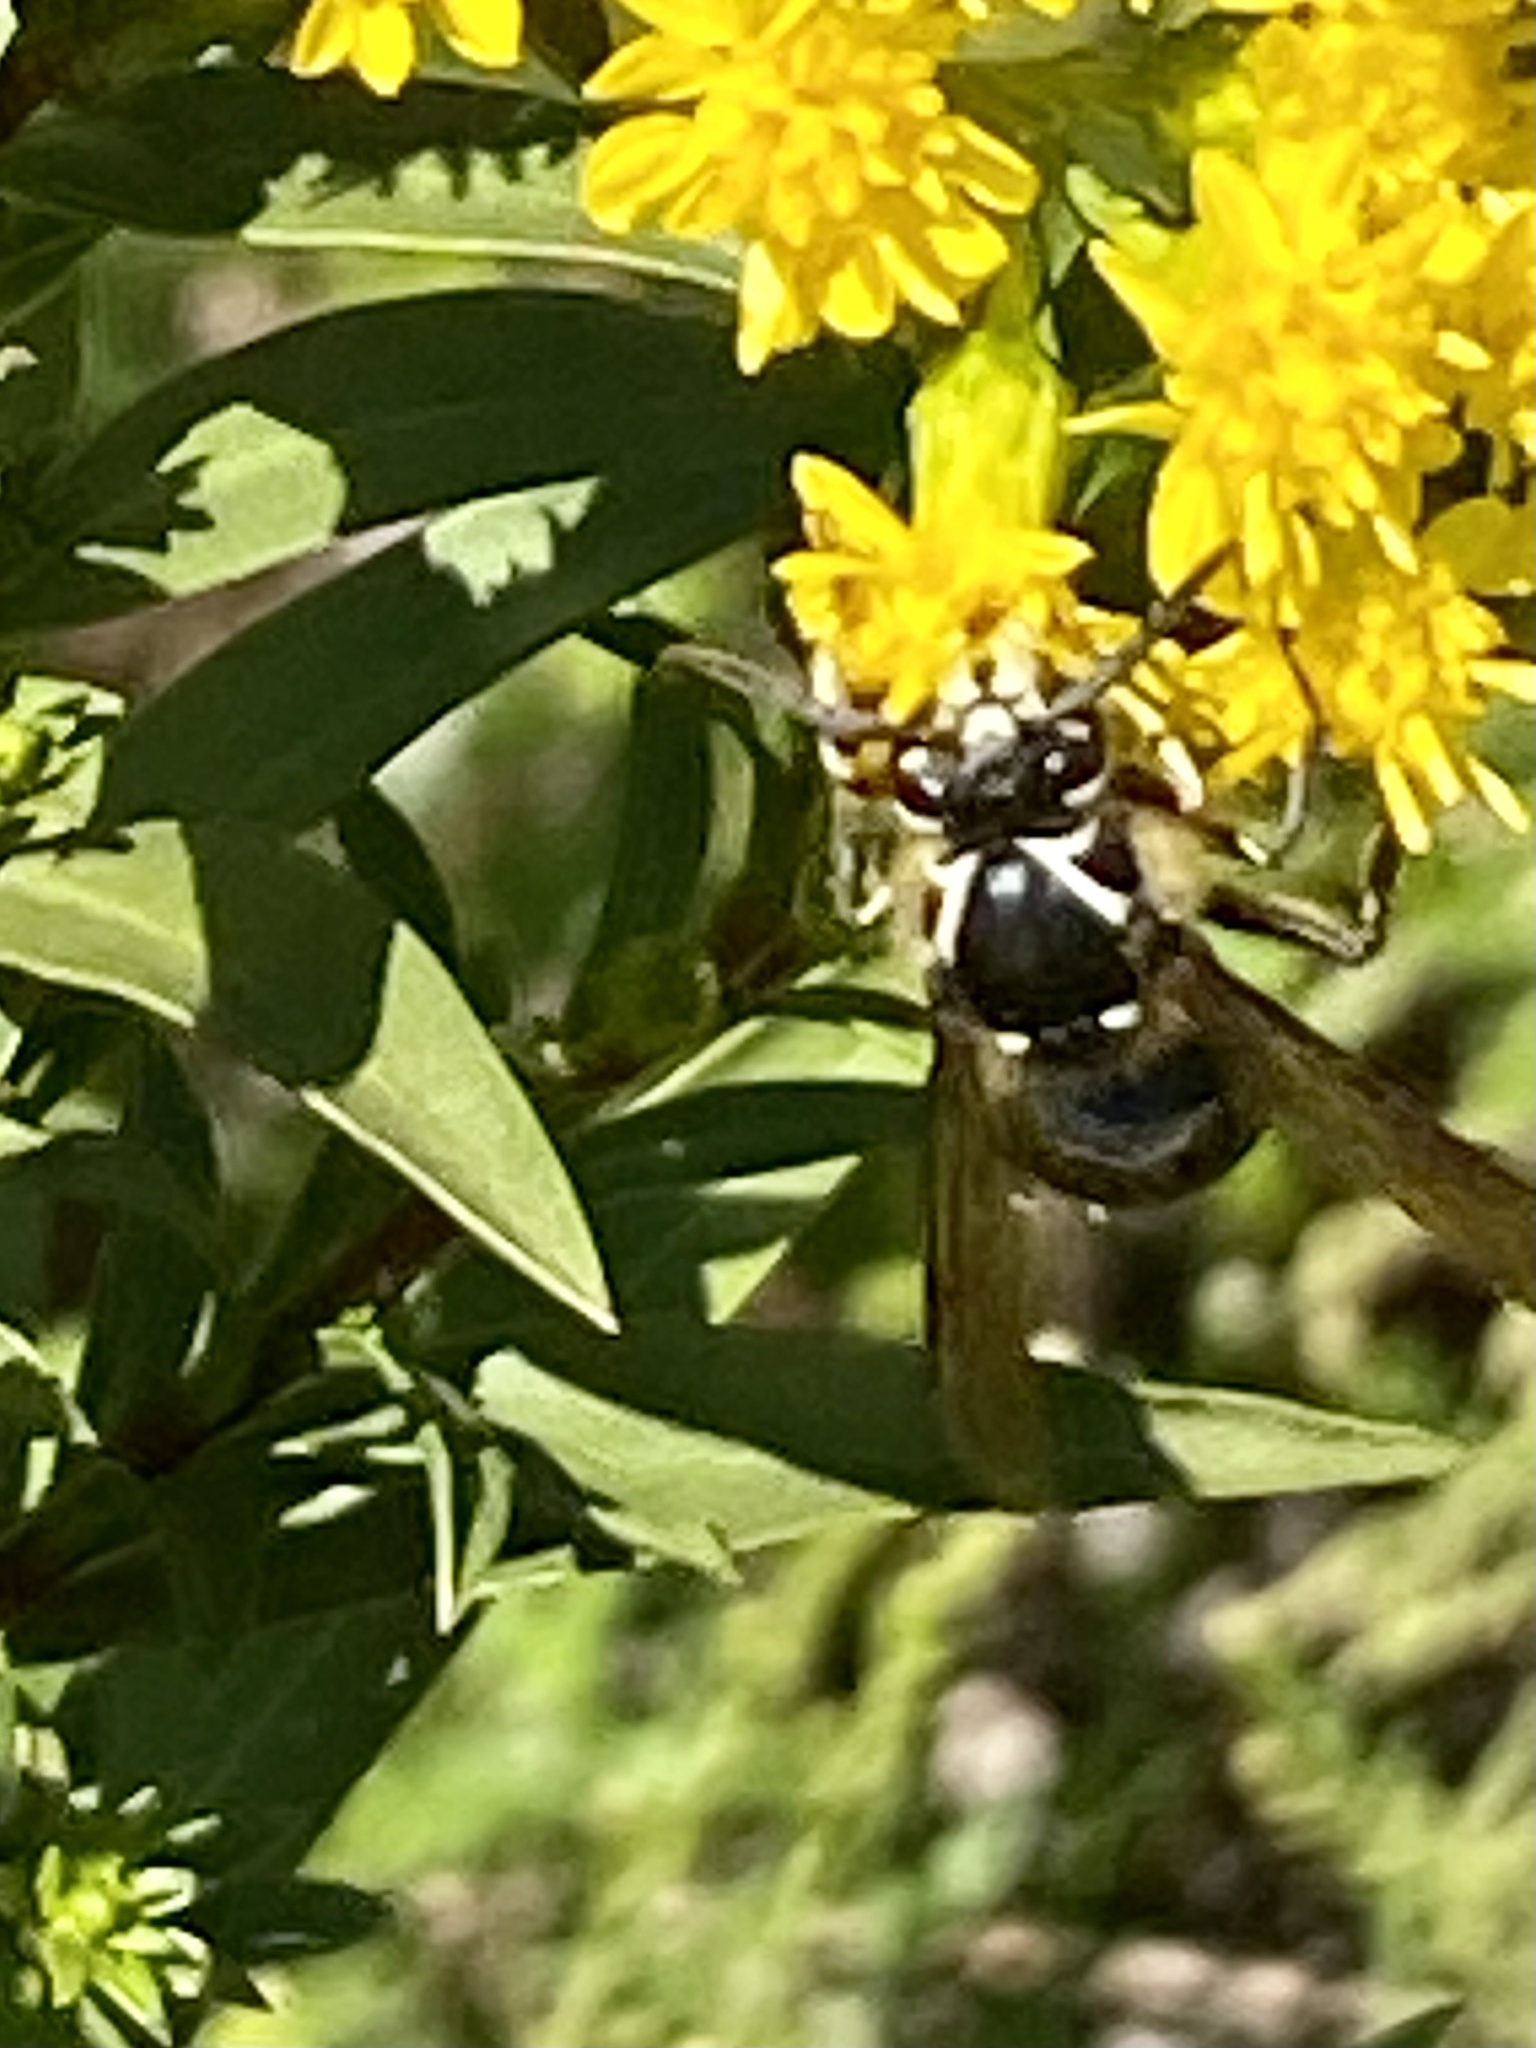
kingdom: Animalia
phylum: Arthropoda
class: Insecta
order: Hymenoptera
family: Vespidae
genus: Dolichovespula
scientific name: Dolichovespula maculata
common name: Bald-faced hornet
